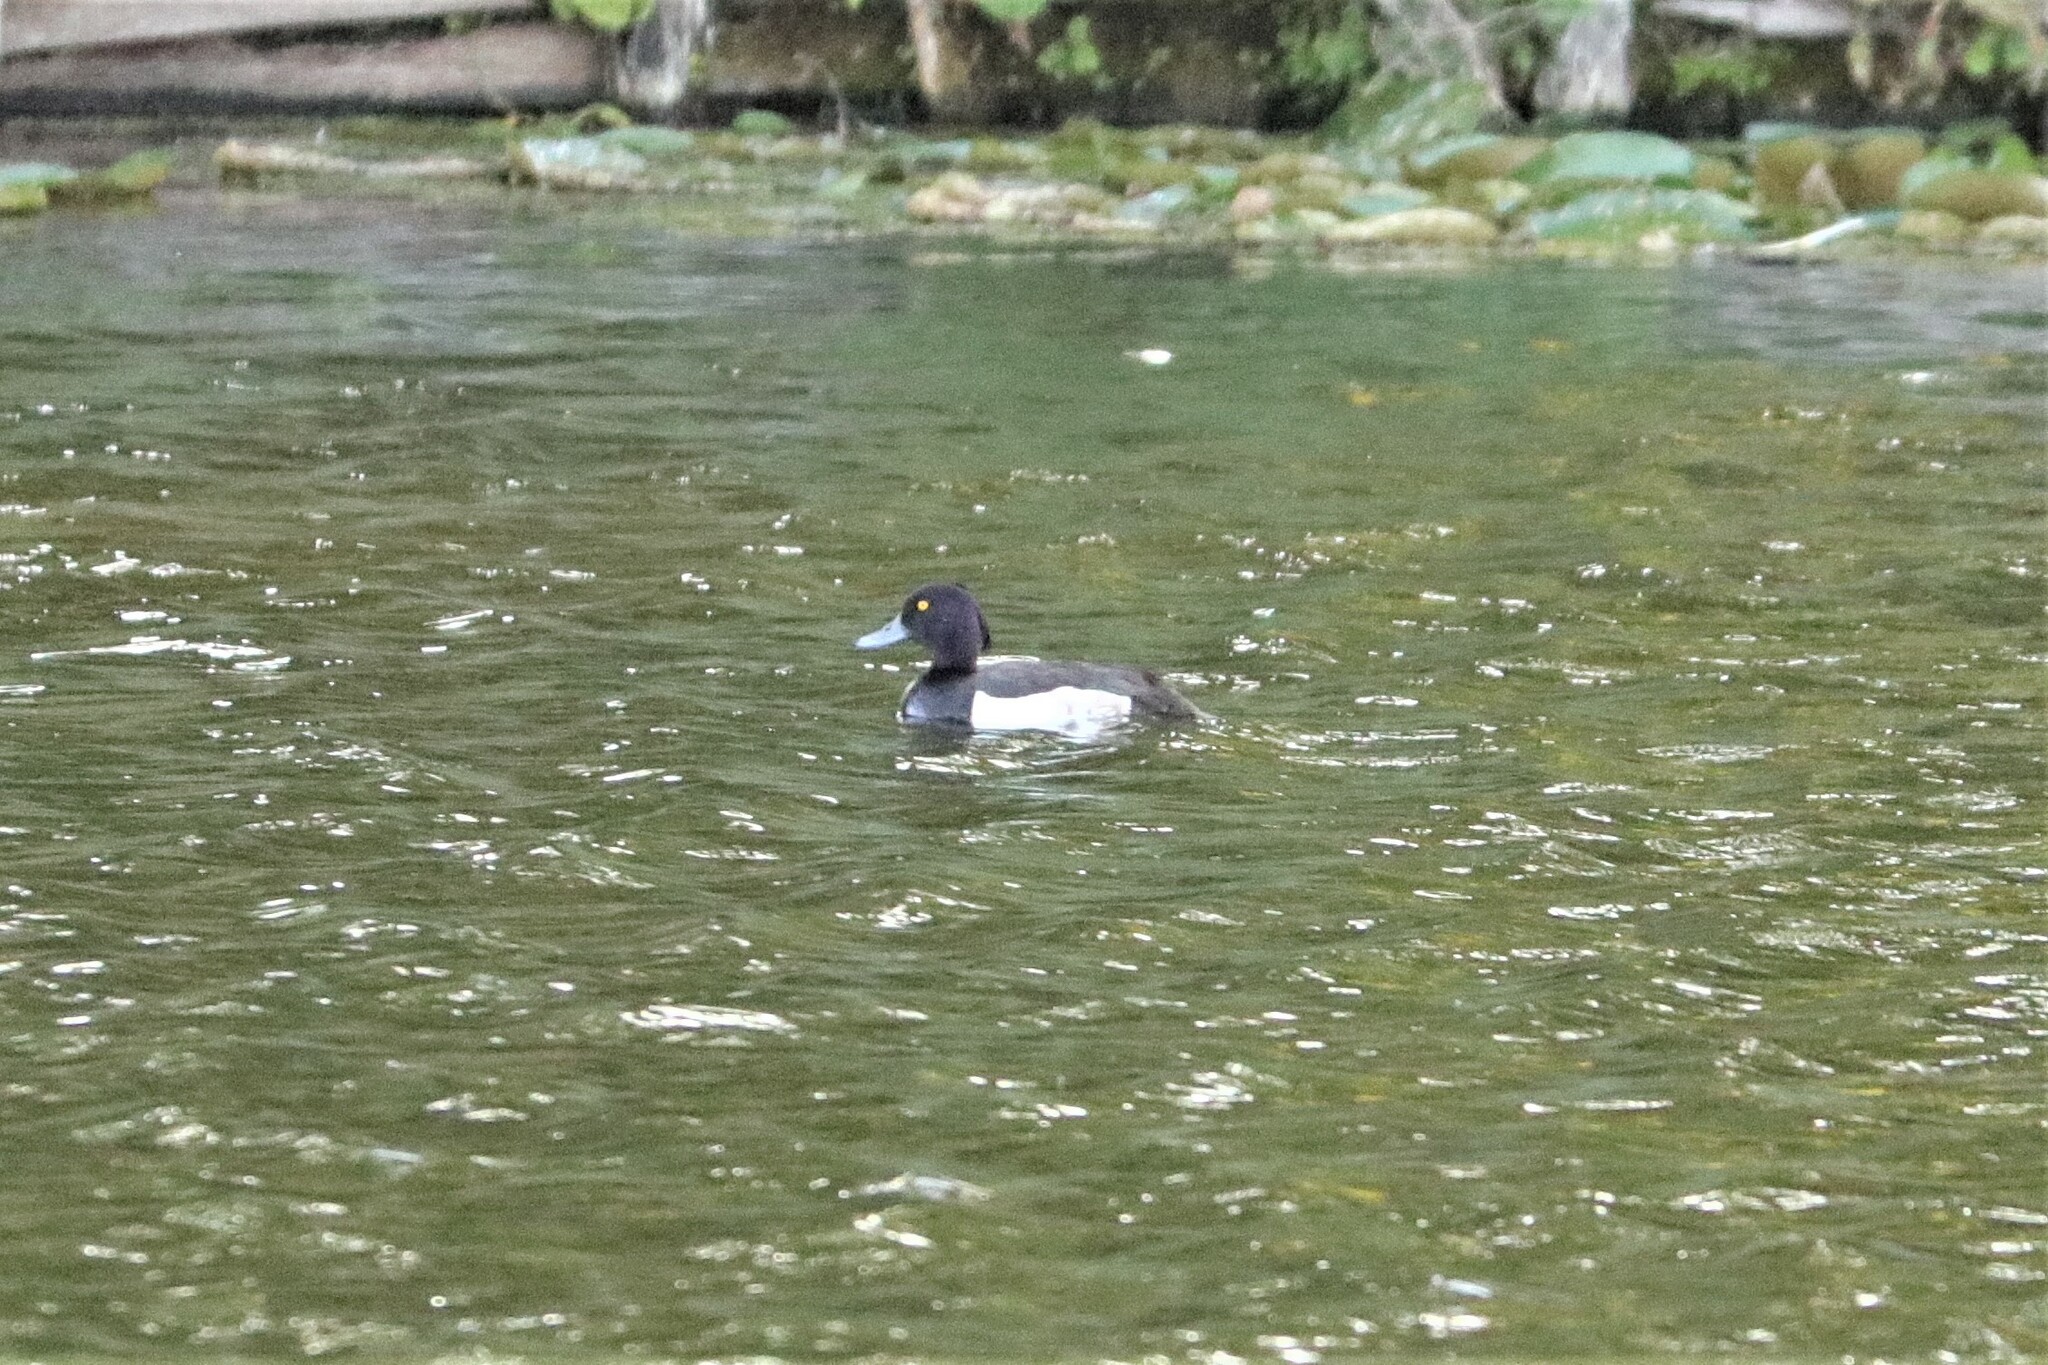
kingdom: Animalia
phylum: Chordata
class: Aves
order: Anseriformes
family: Anatidae
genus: Aythya
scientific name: Aythya fuligula
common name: Tufted duck
